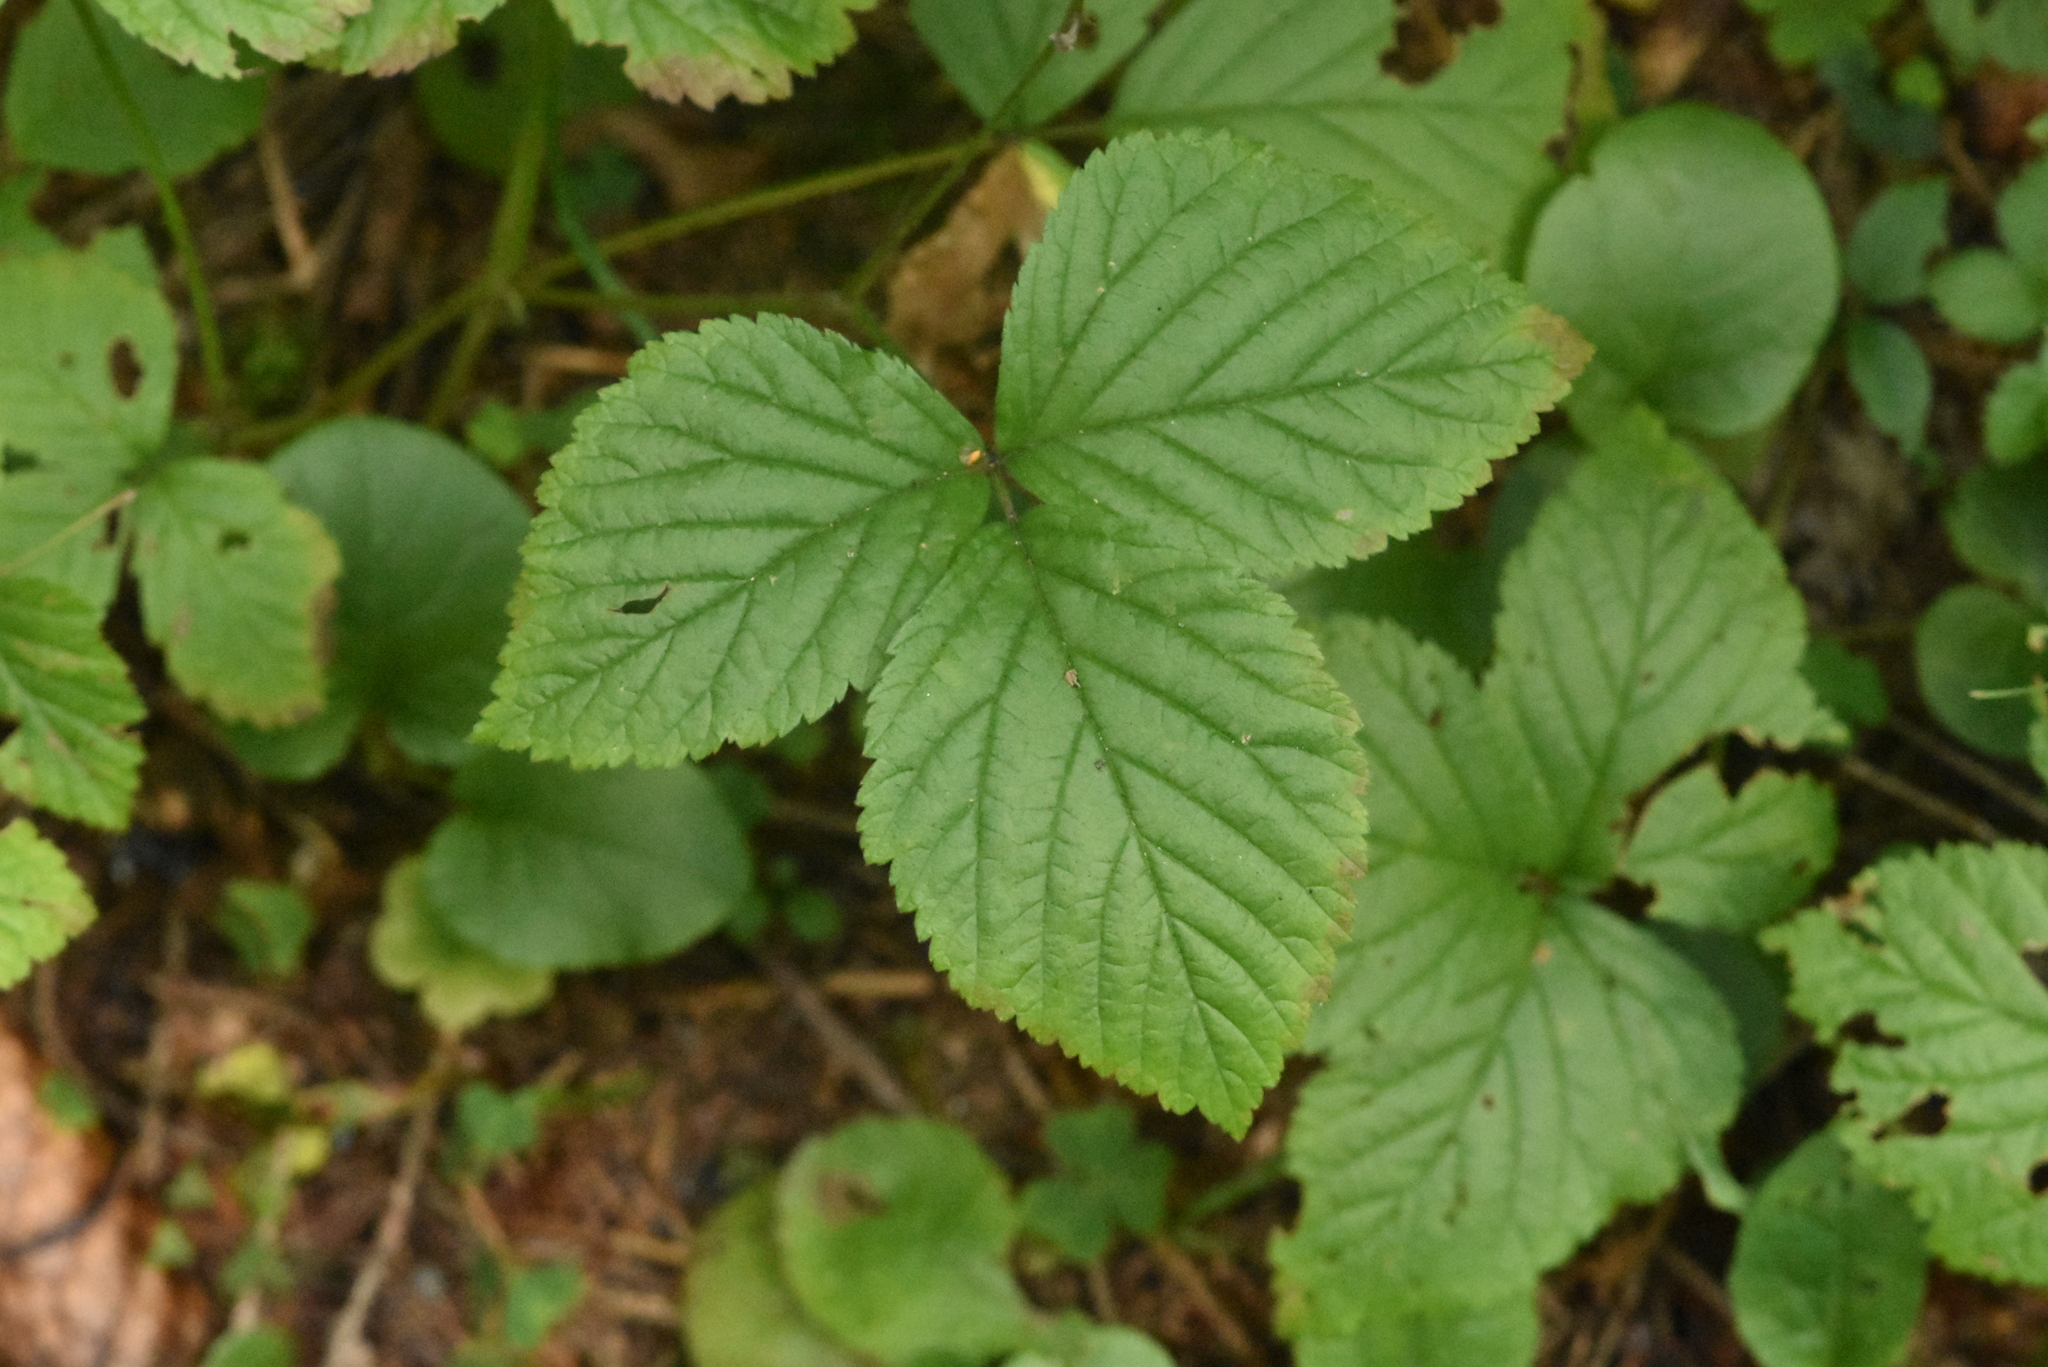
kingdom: Plantae
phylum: Tracheophyta
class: Magnoliopsida
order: Rosales
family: Rosaceae
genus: Rubus
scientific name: Rubus saxatilis
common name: Stone bramble
